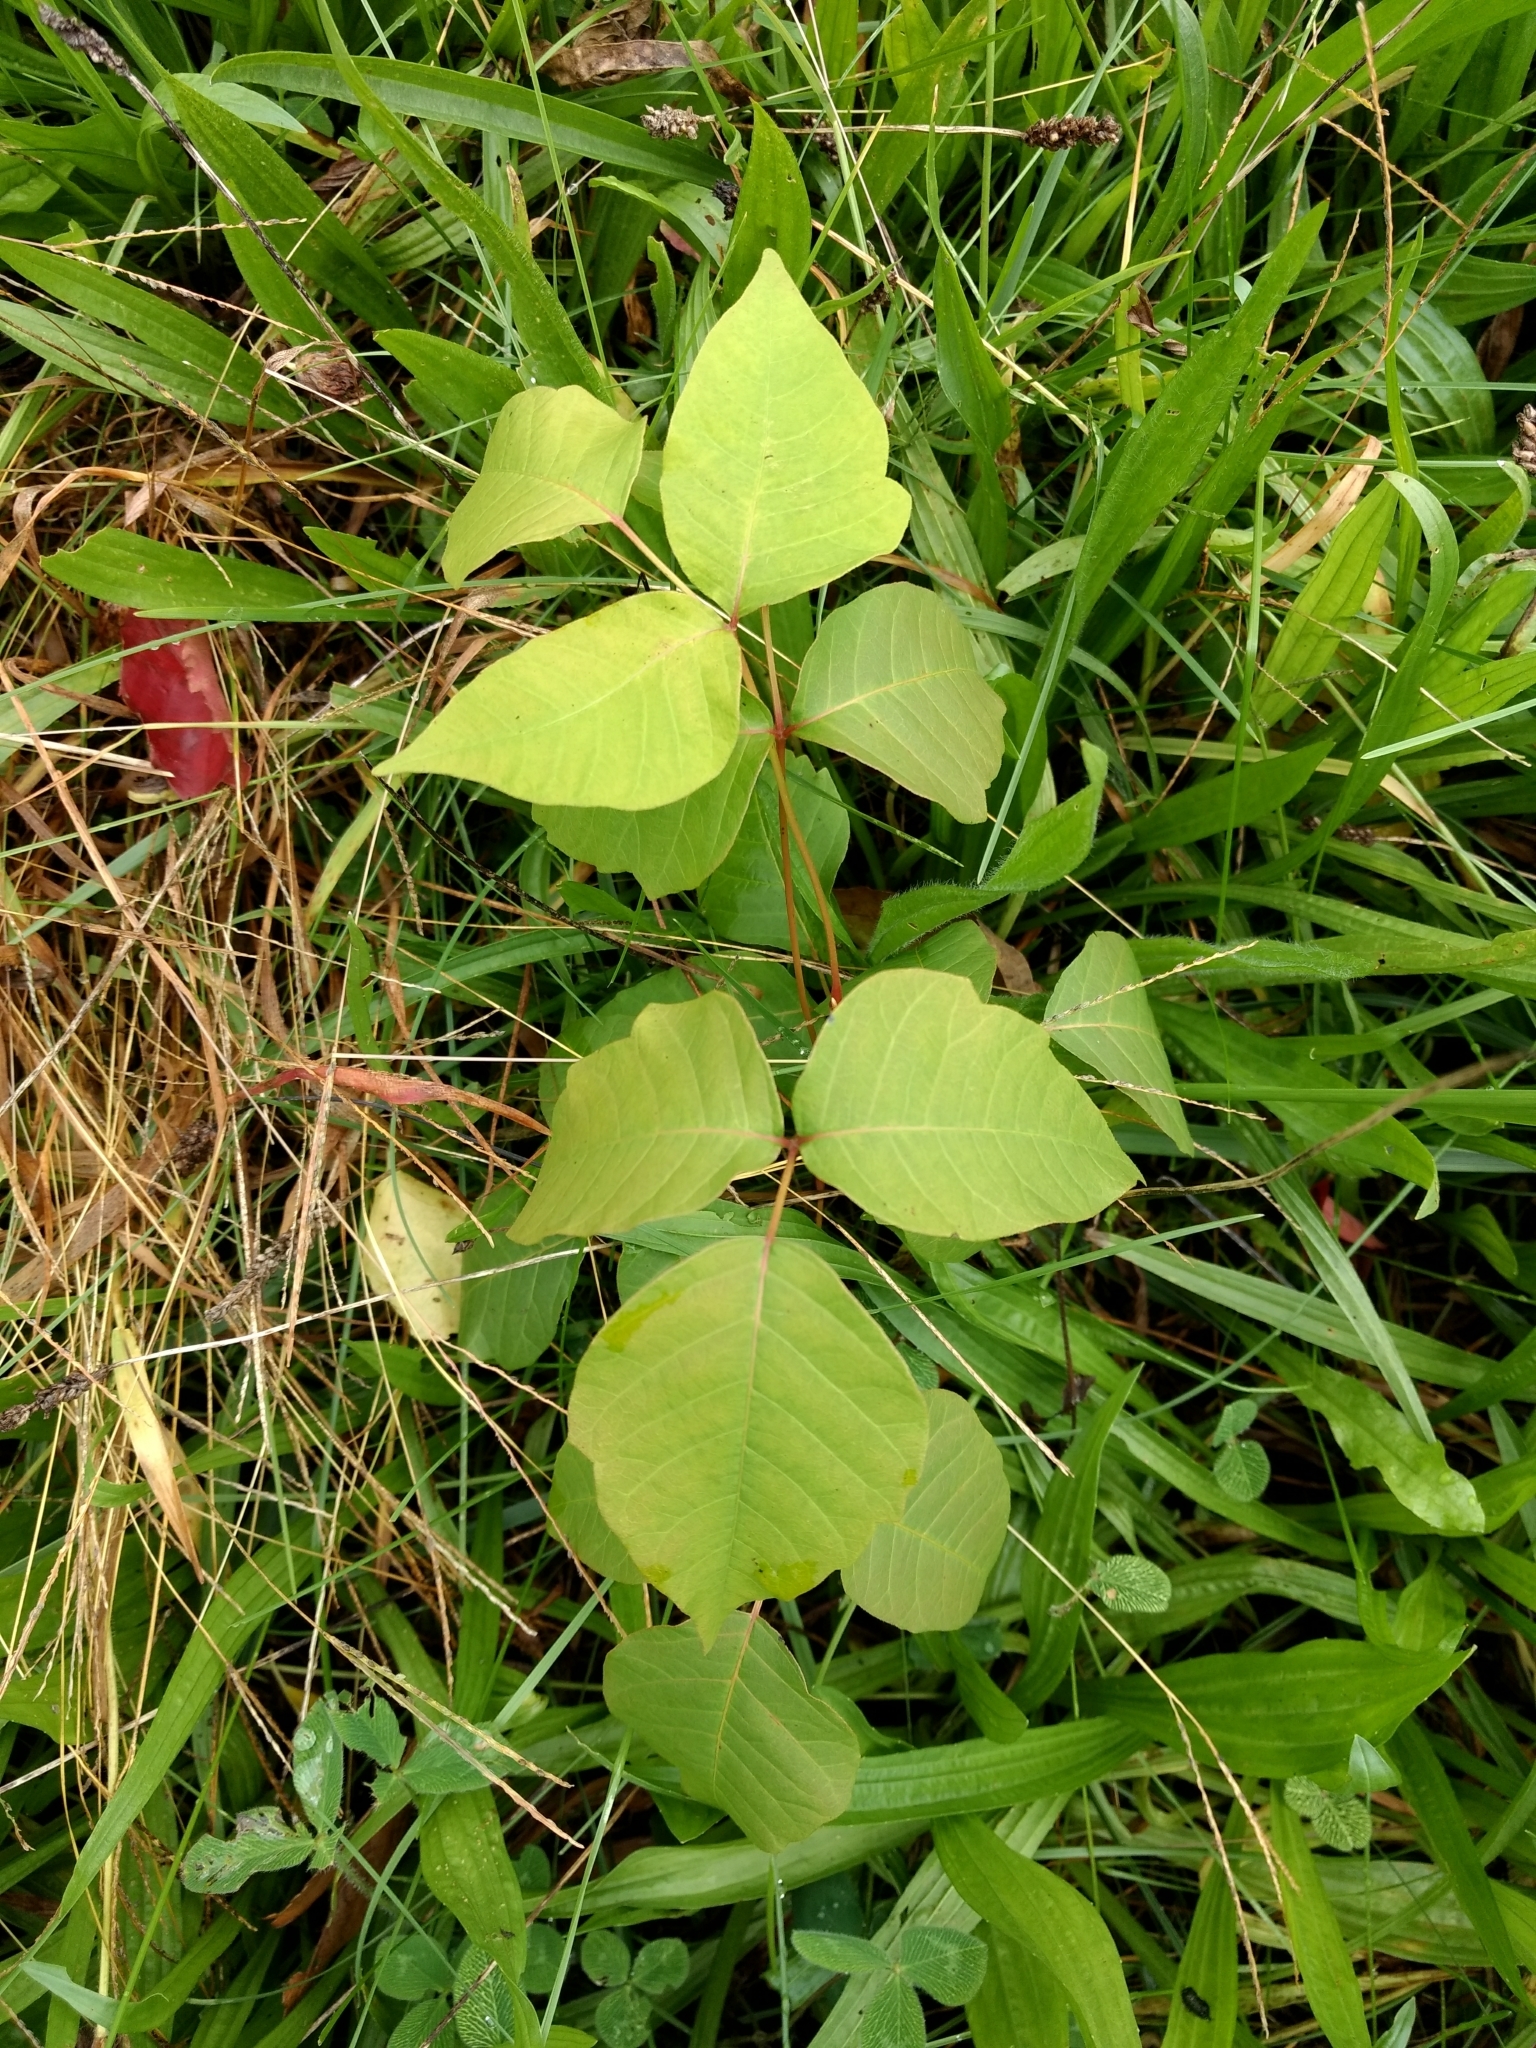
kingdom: Plantae
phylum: Tracheophyta
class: Magnoliopsida
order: Sapindales
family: Anacardiaceae
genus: Toxicodendron
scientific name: Toxicodendron radicans
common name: Poison ivy
